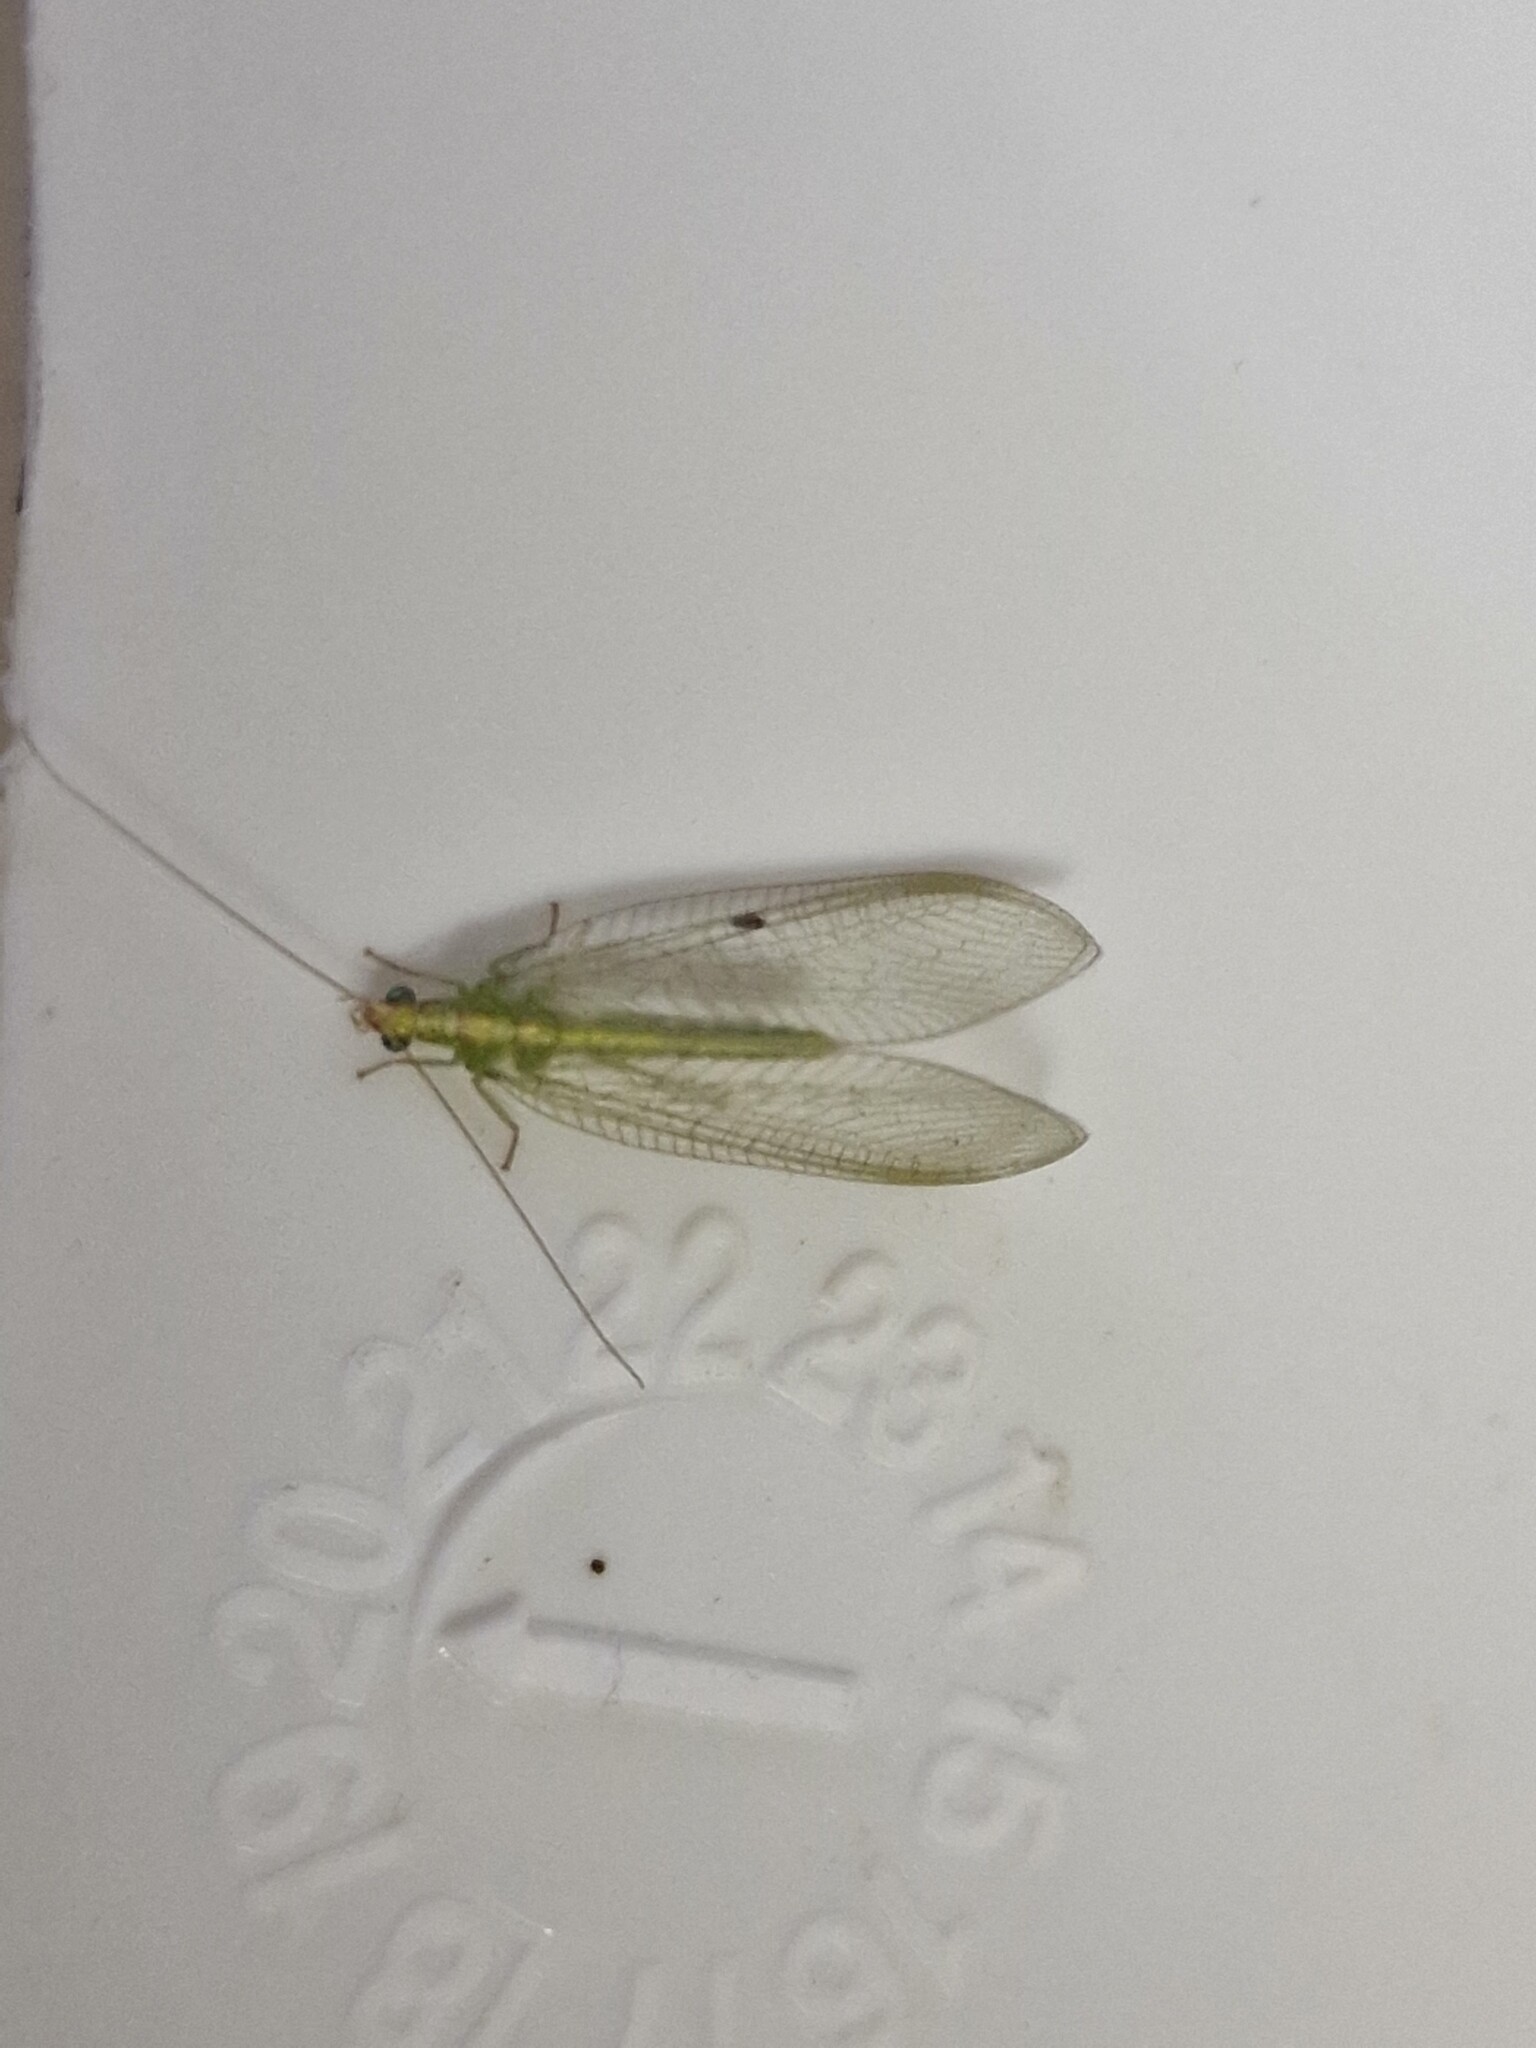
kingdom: Animalia
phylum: Arthropoda
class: Insecta
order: Neuroptera
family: Chrysopidae
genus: Chrysoperla
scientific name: Chrysoperla
